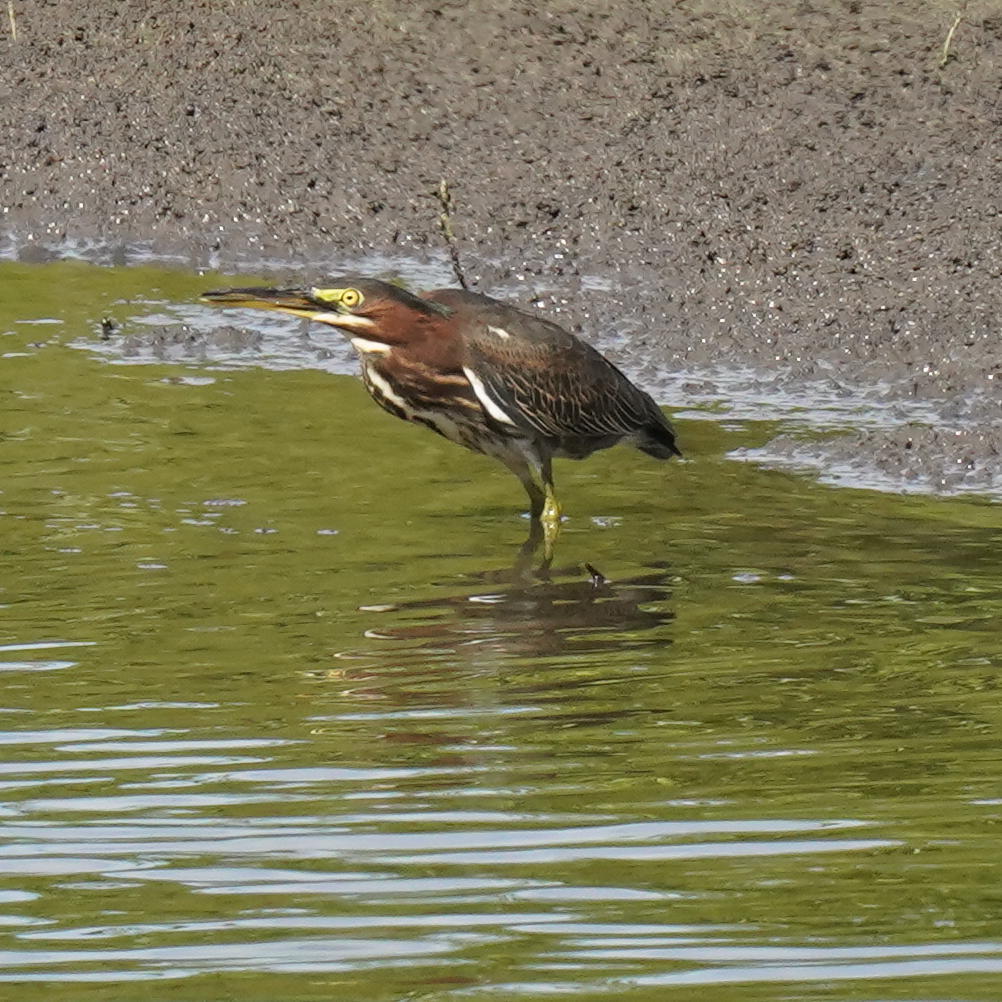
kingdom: Animalia
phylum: Chordata
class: Aves
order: Pelecaniformes
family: Ardeidae
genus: Butorides
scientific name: Butorides virescens
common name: Green heron
